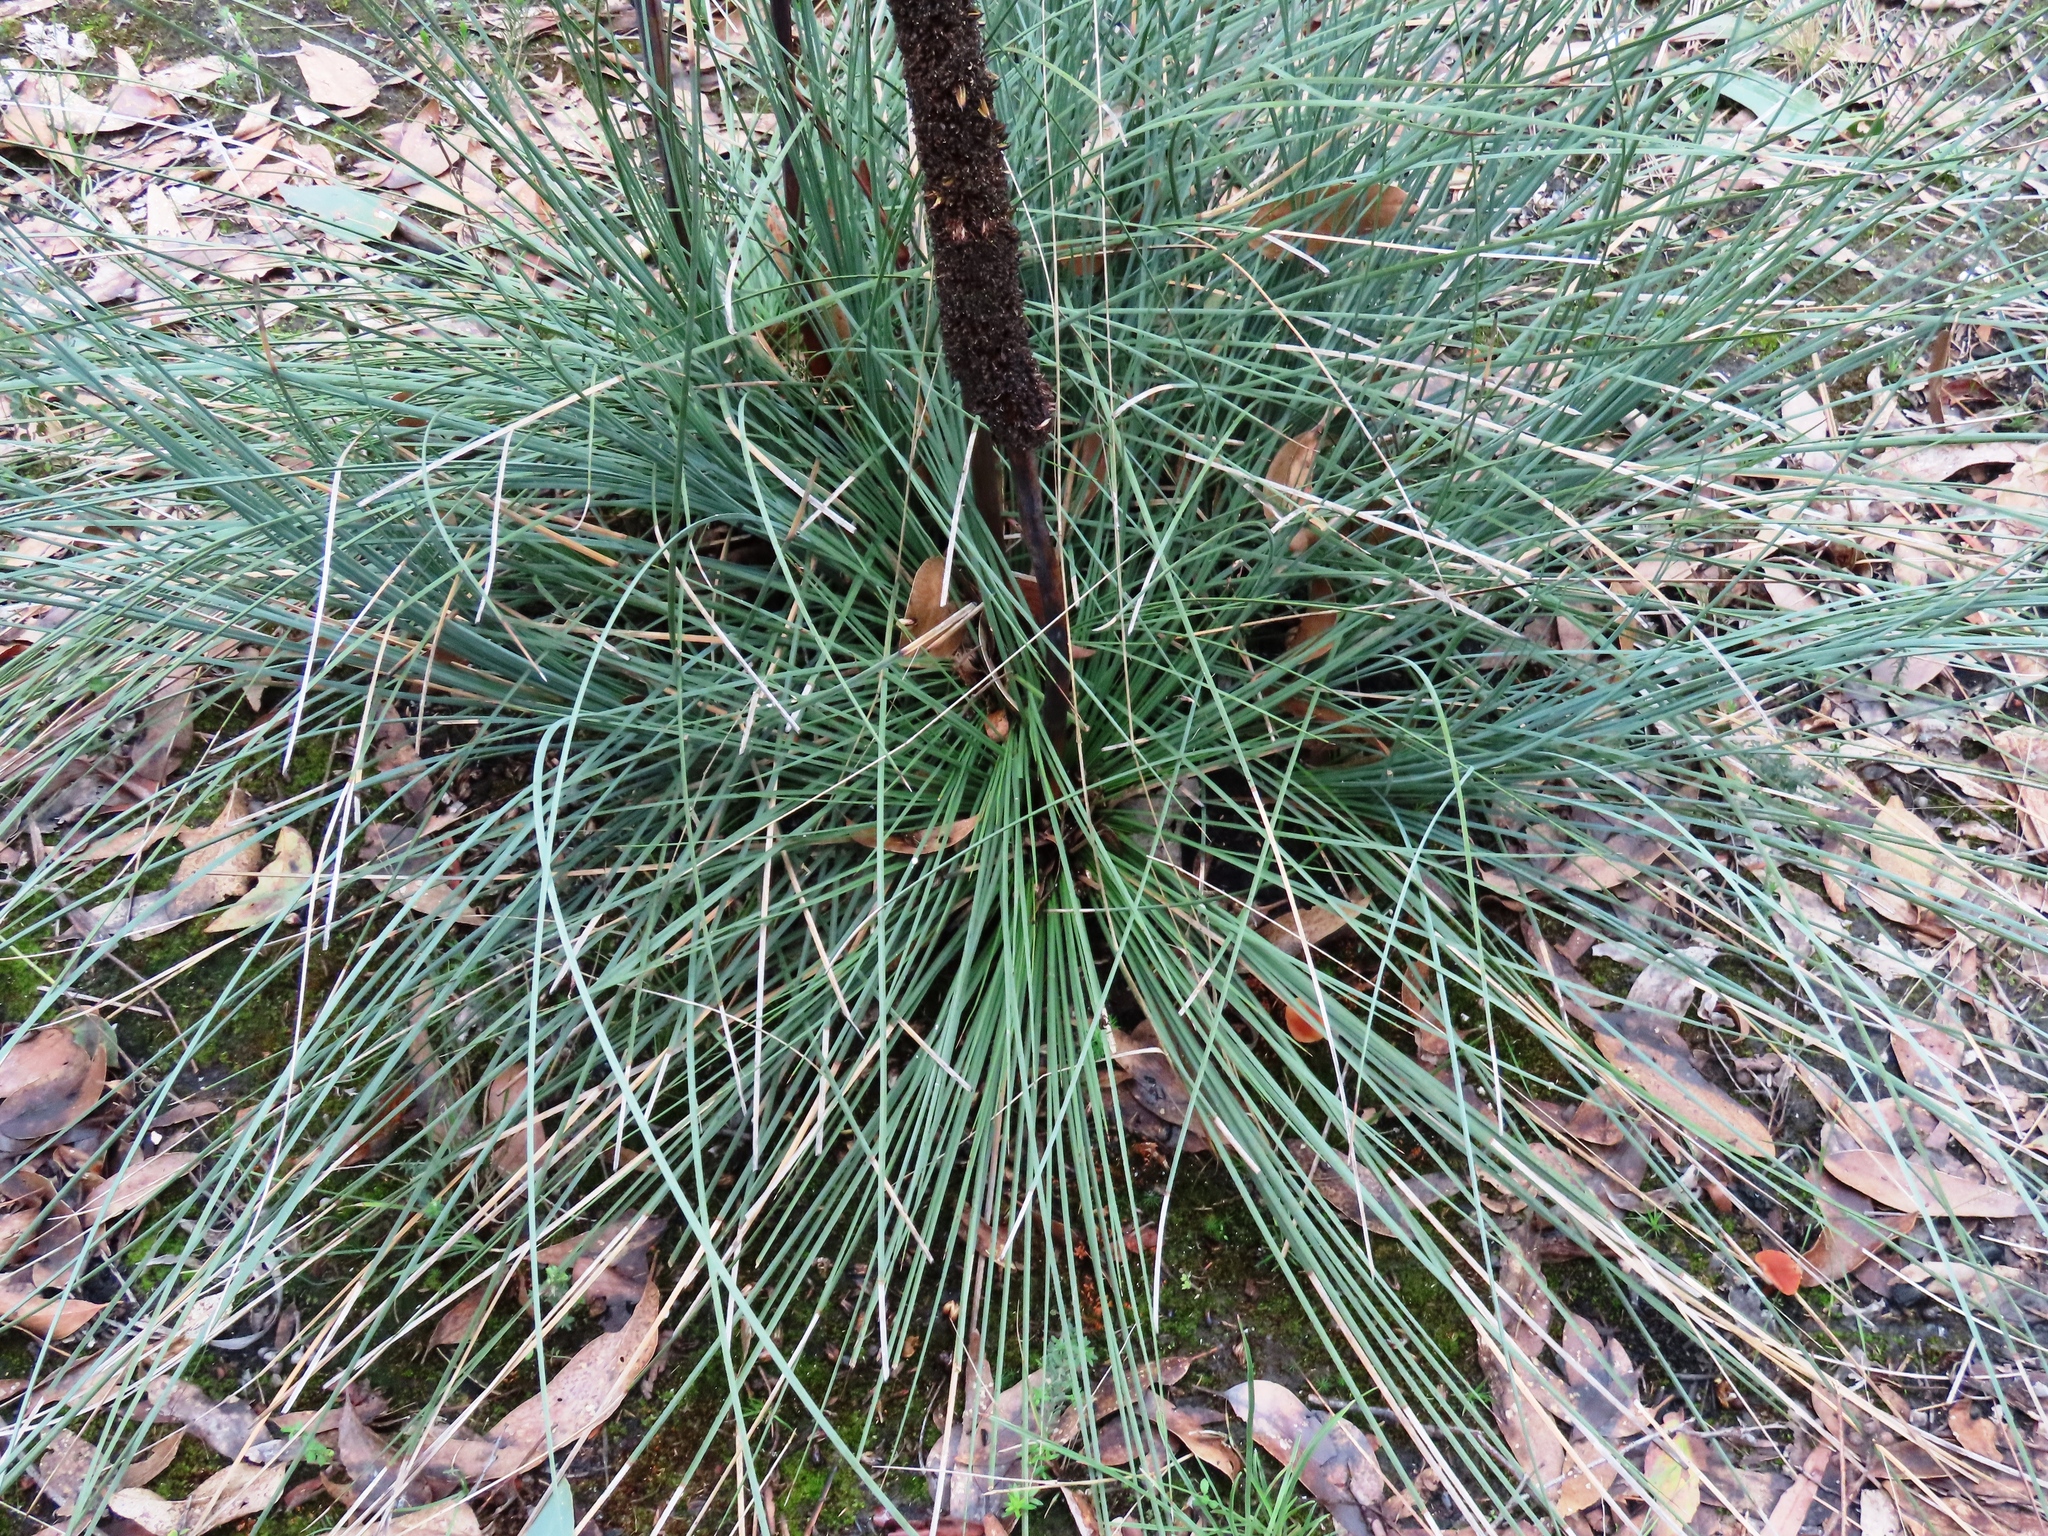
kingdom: Plantae
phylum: Tracheophyta
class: Liliopsida
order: Asparagales
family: Asphodelaceae
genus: Xanthorrhoea
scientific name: Xanthorrhoea minor
